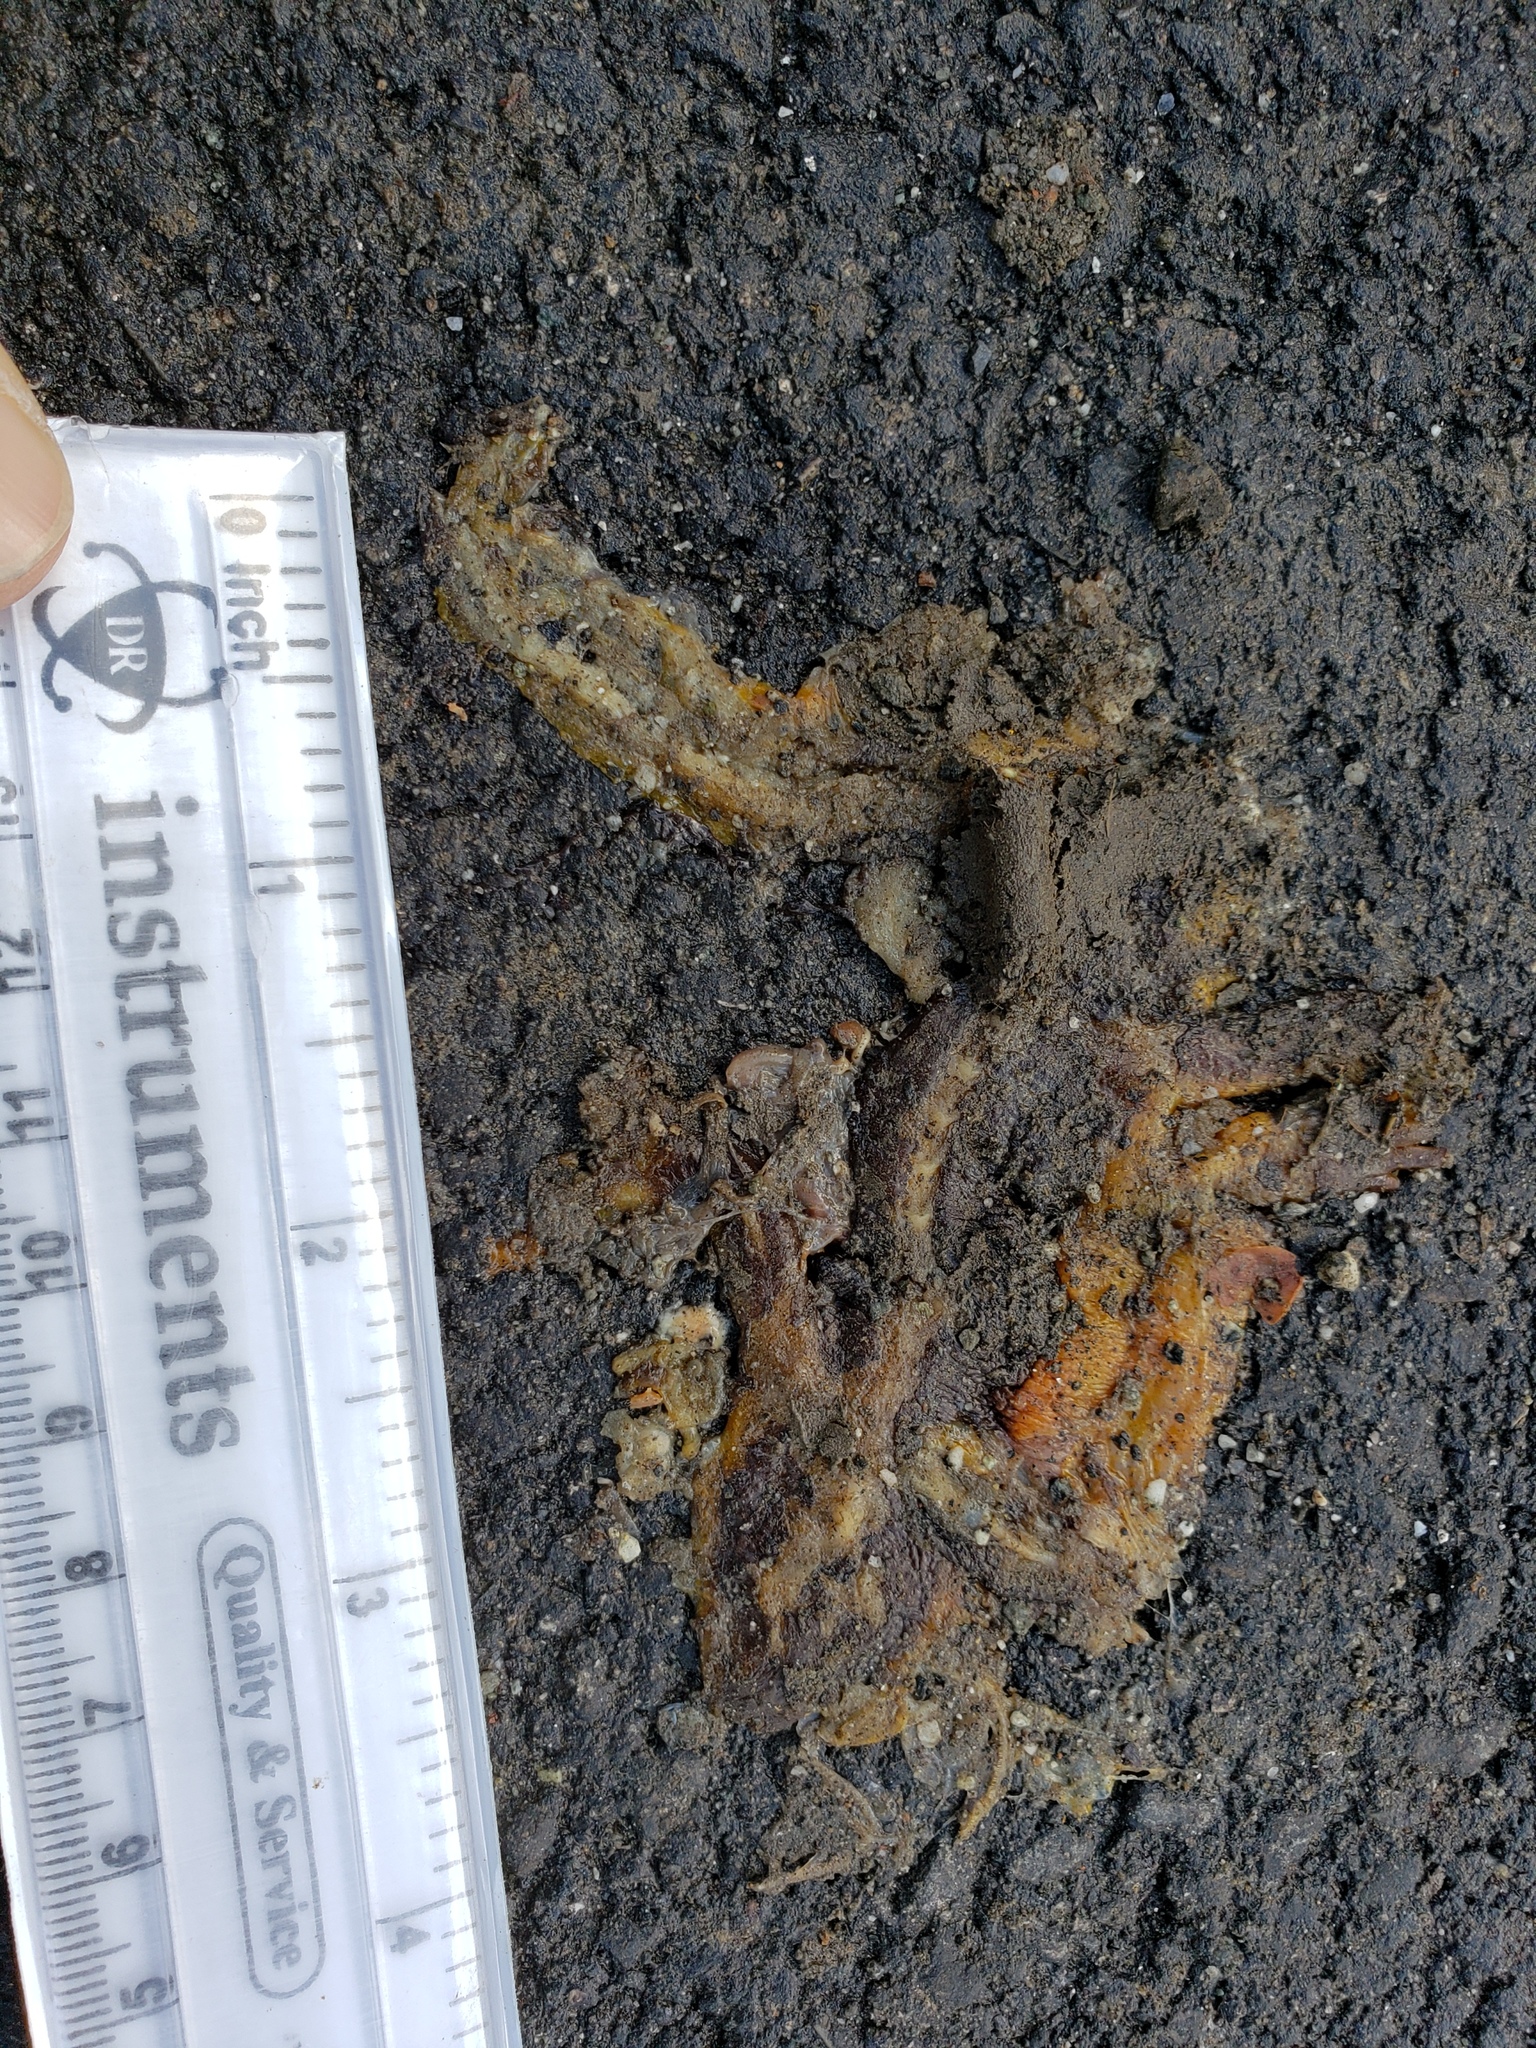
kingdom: Animalia
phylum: Chordata
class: Amphibia
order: Caudata
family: Salamandridae
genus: Taricha
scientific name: Taricha
